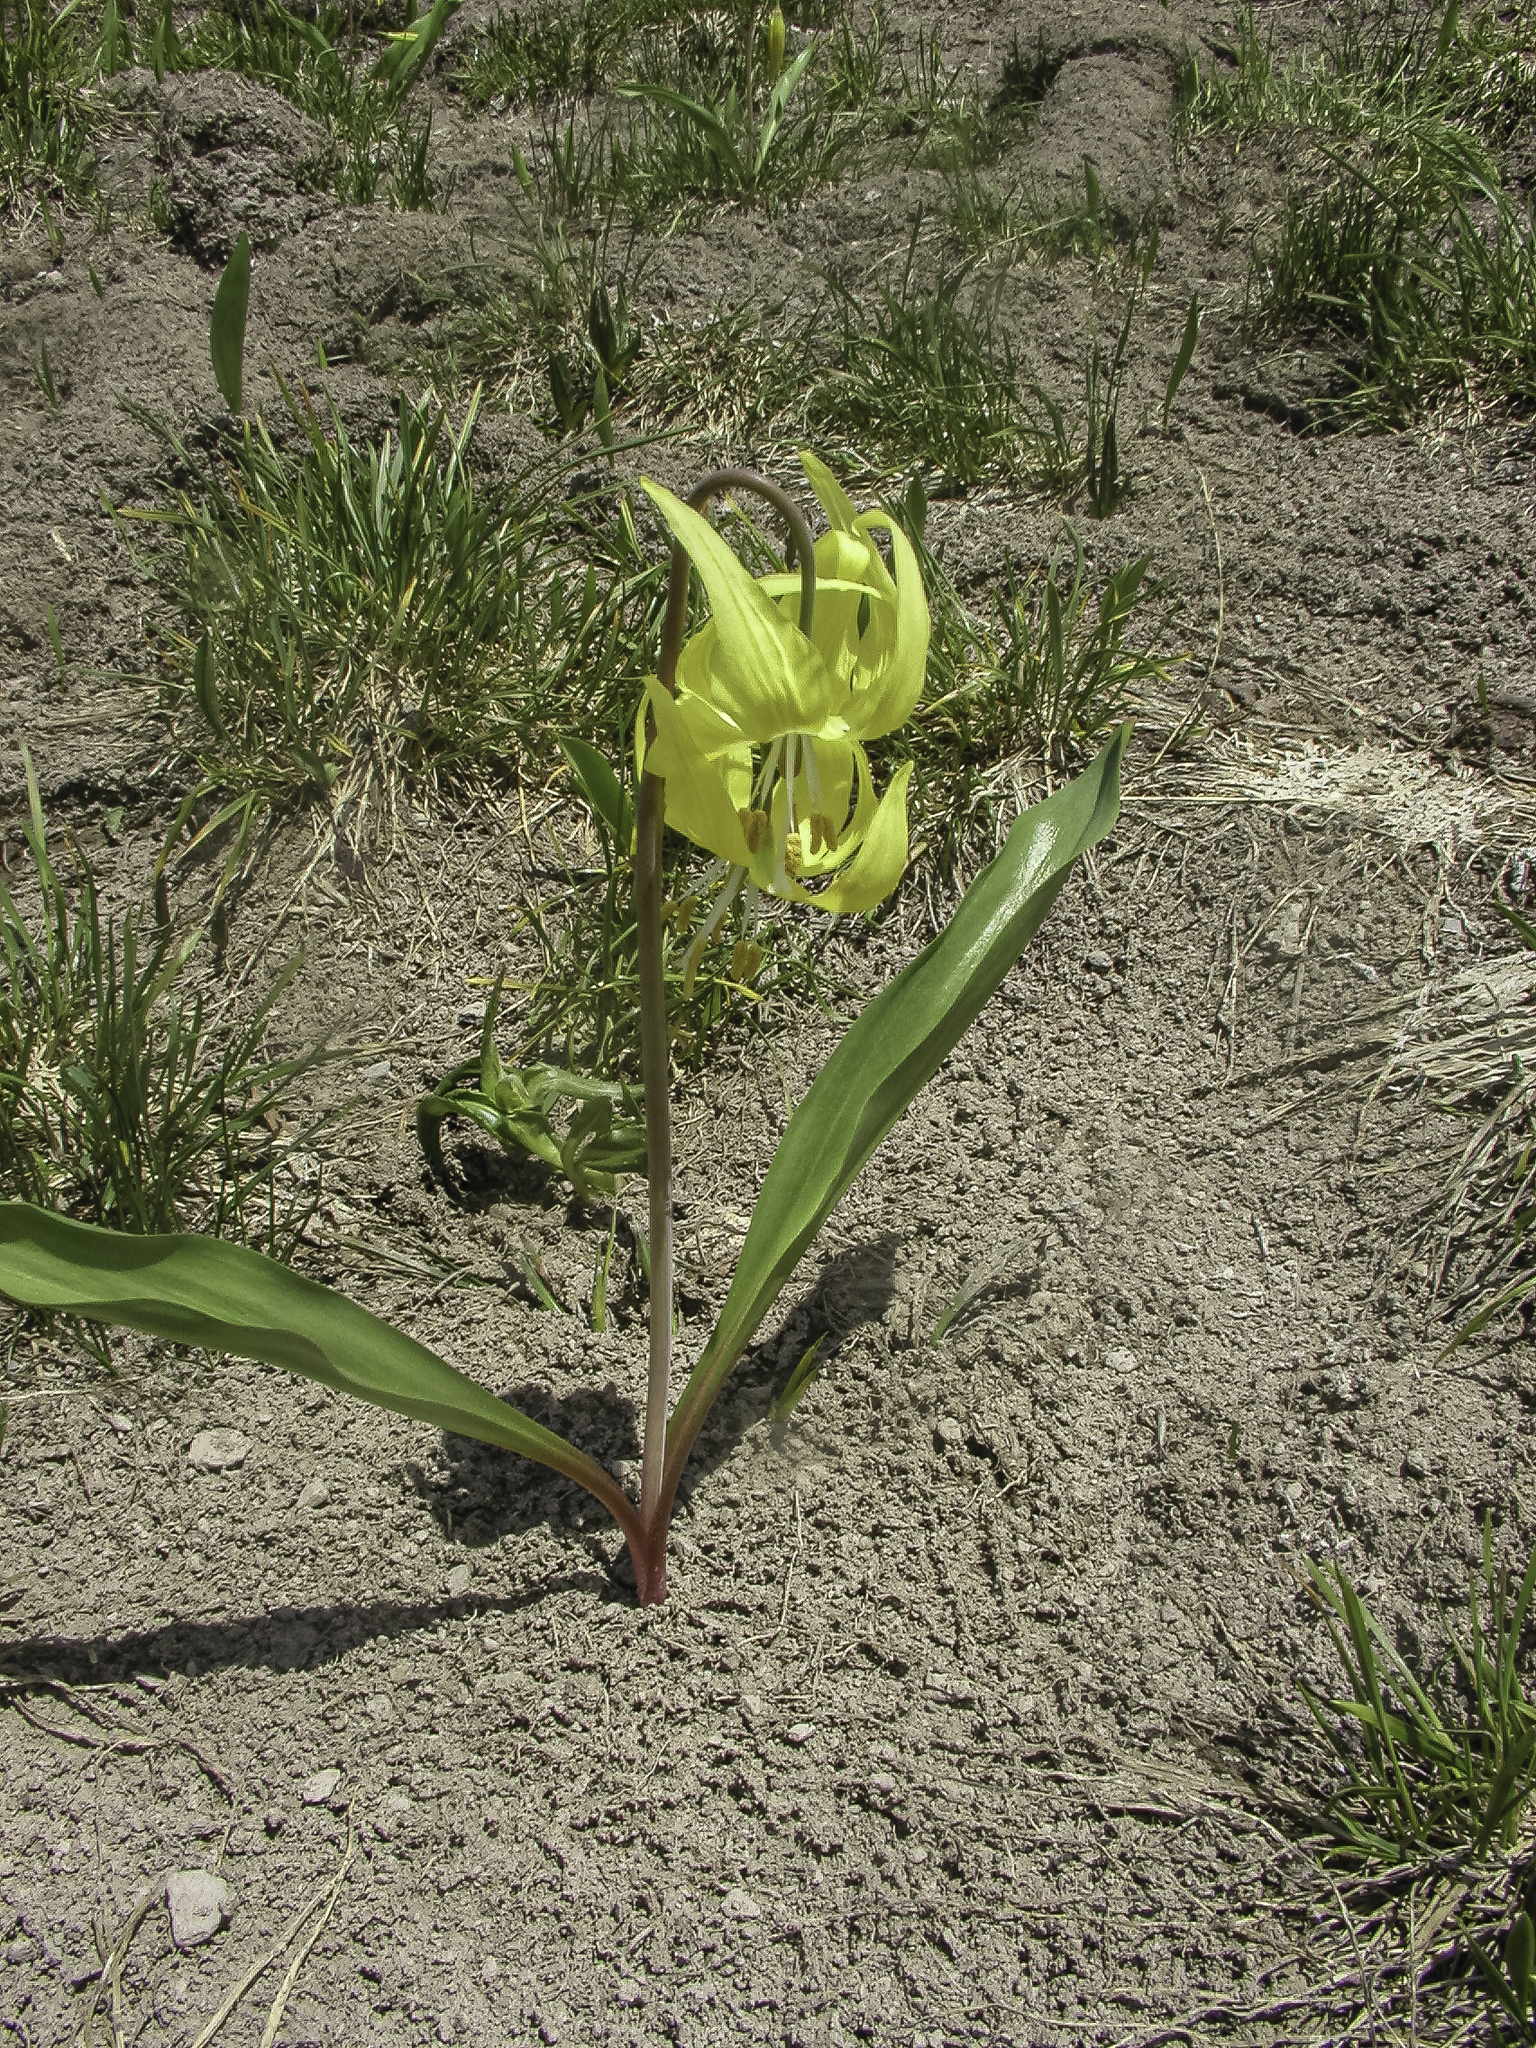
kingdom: Plantae
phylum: Tracheophyta
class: Liliopsida
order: Liliales
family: Liliaceae
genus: Erythronium
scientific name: Erythronium grandiflorum
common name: Avalanche-lily
